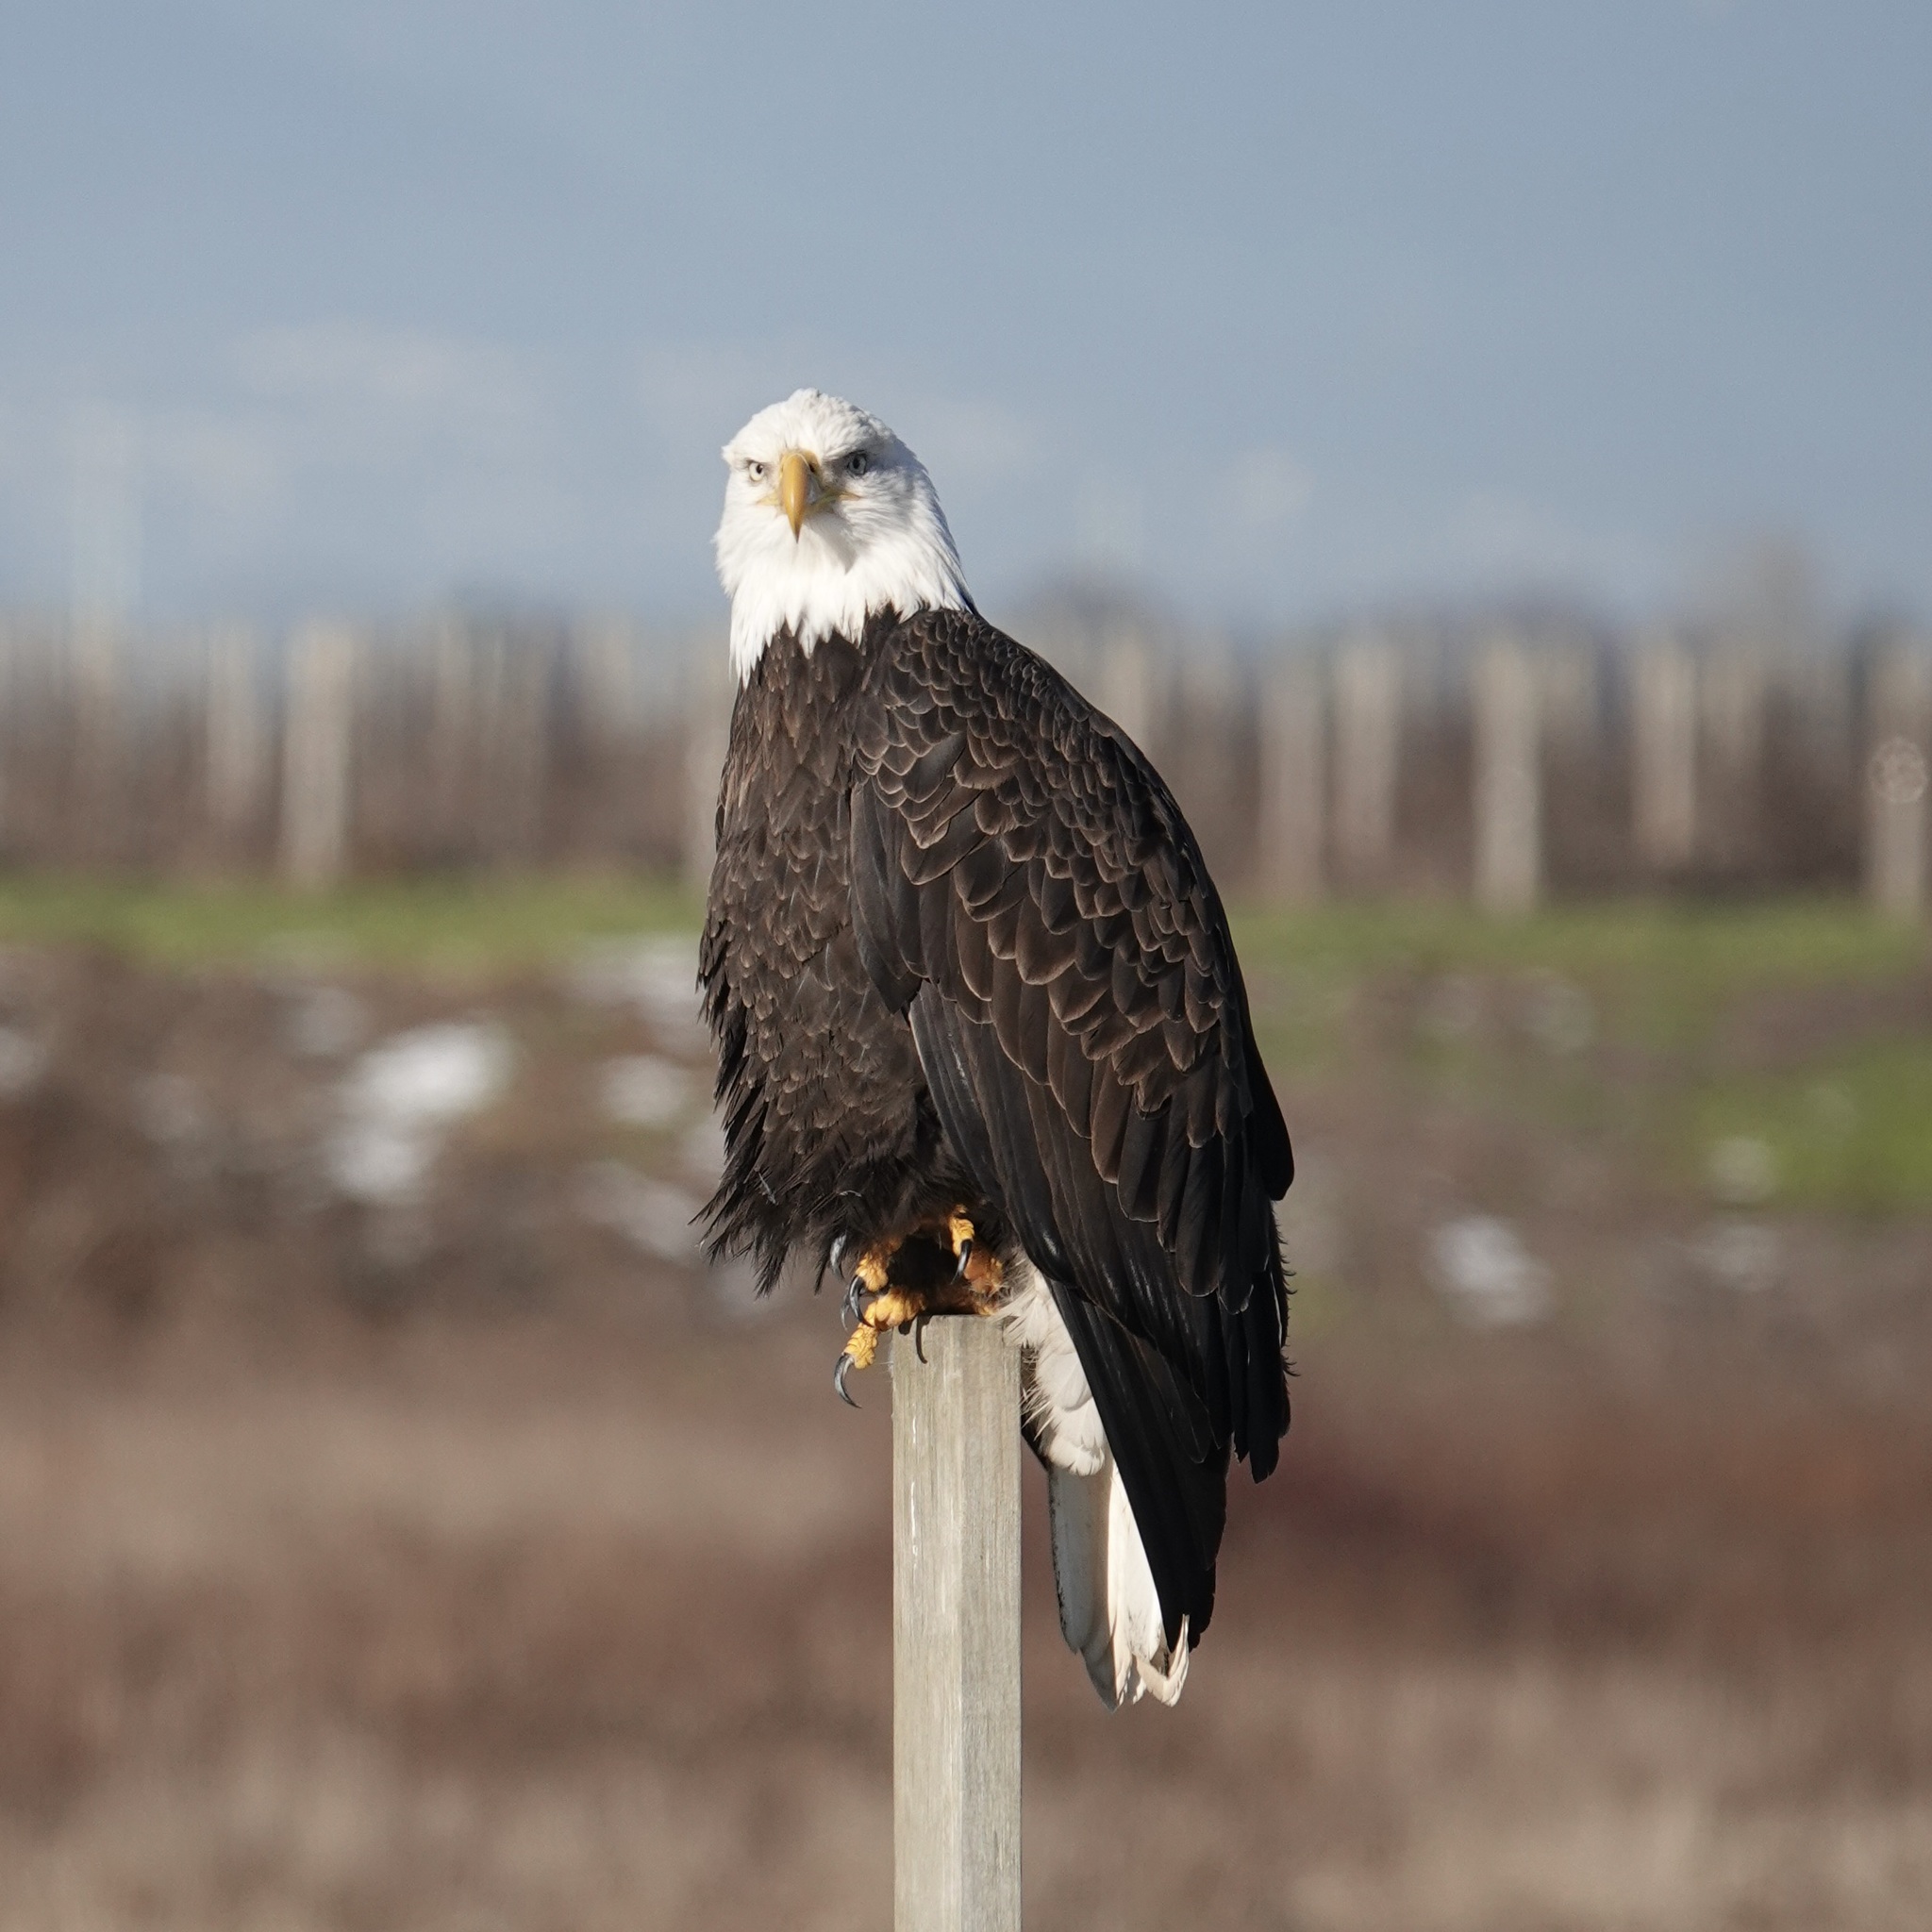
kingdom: Animalia
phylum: Chordata
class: Aves
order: Accipitriformes
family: Accipitridae
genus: Haliaeetus
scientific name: Haliaeetus leucocephalus
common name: Bald eagle
